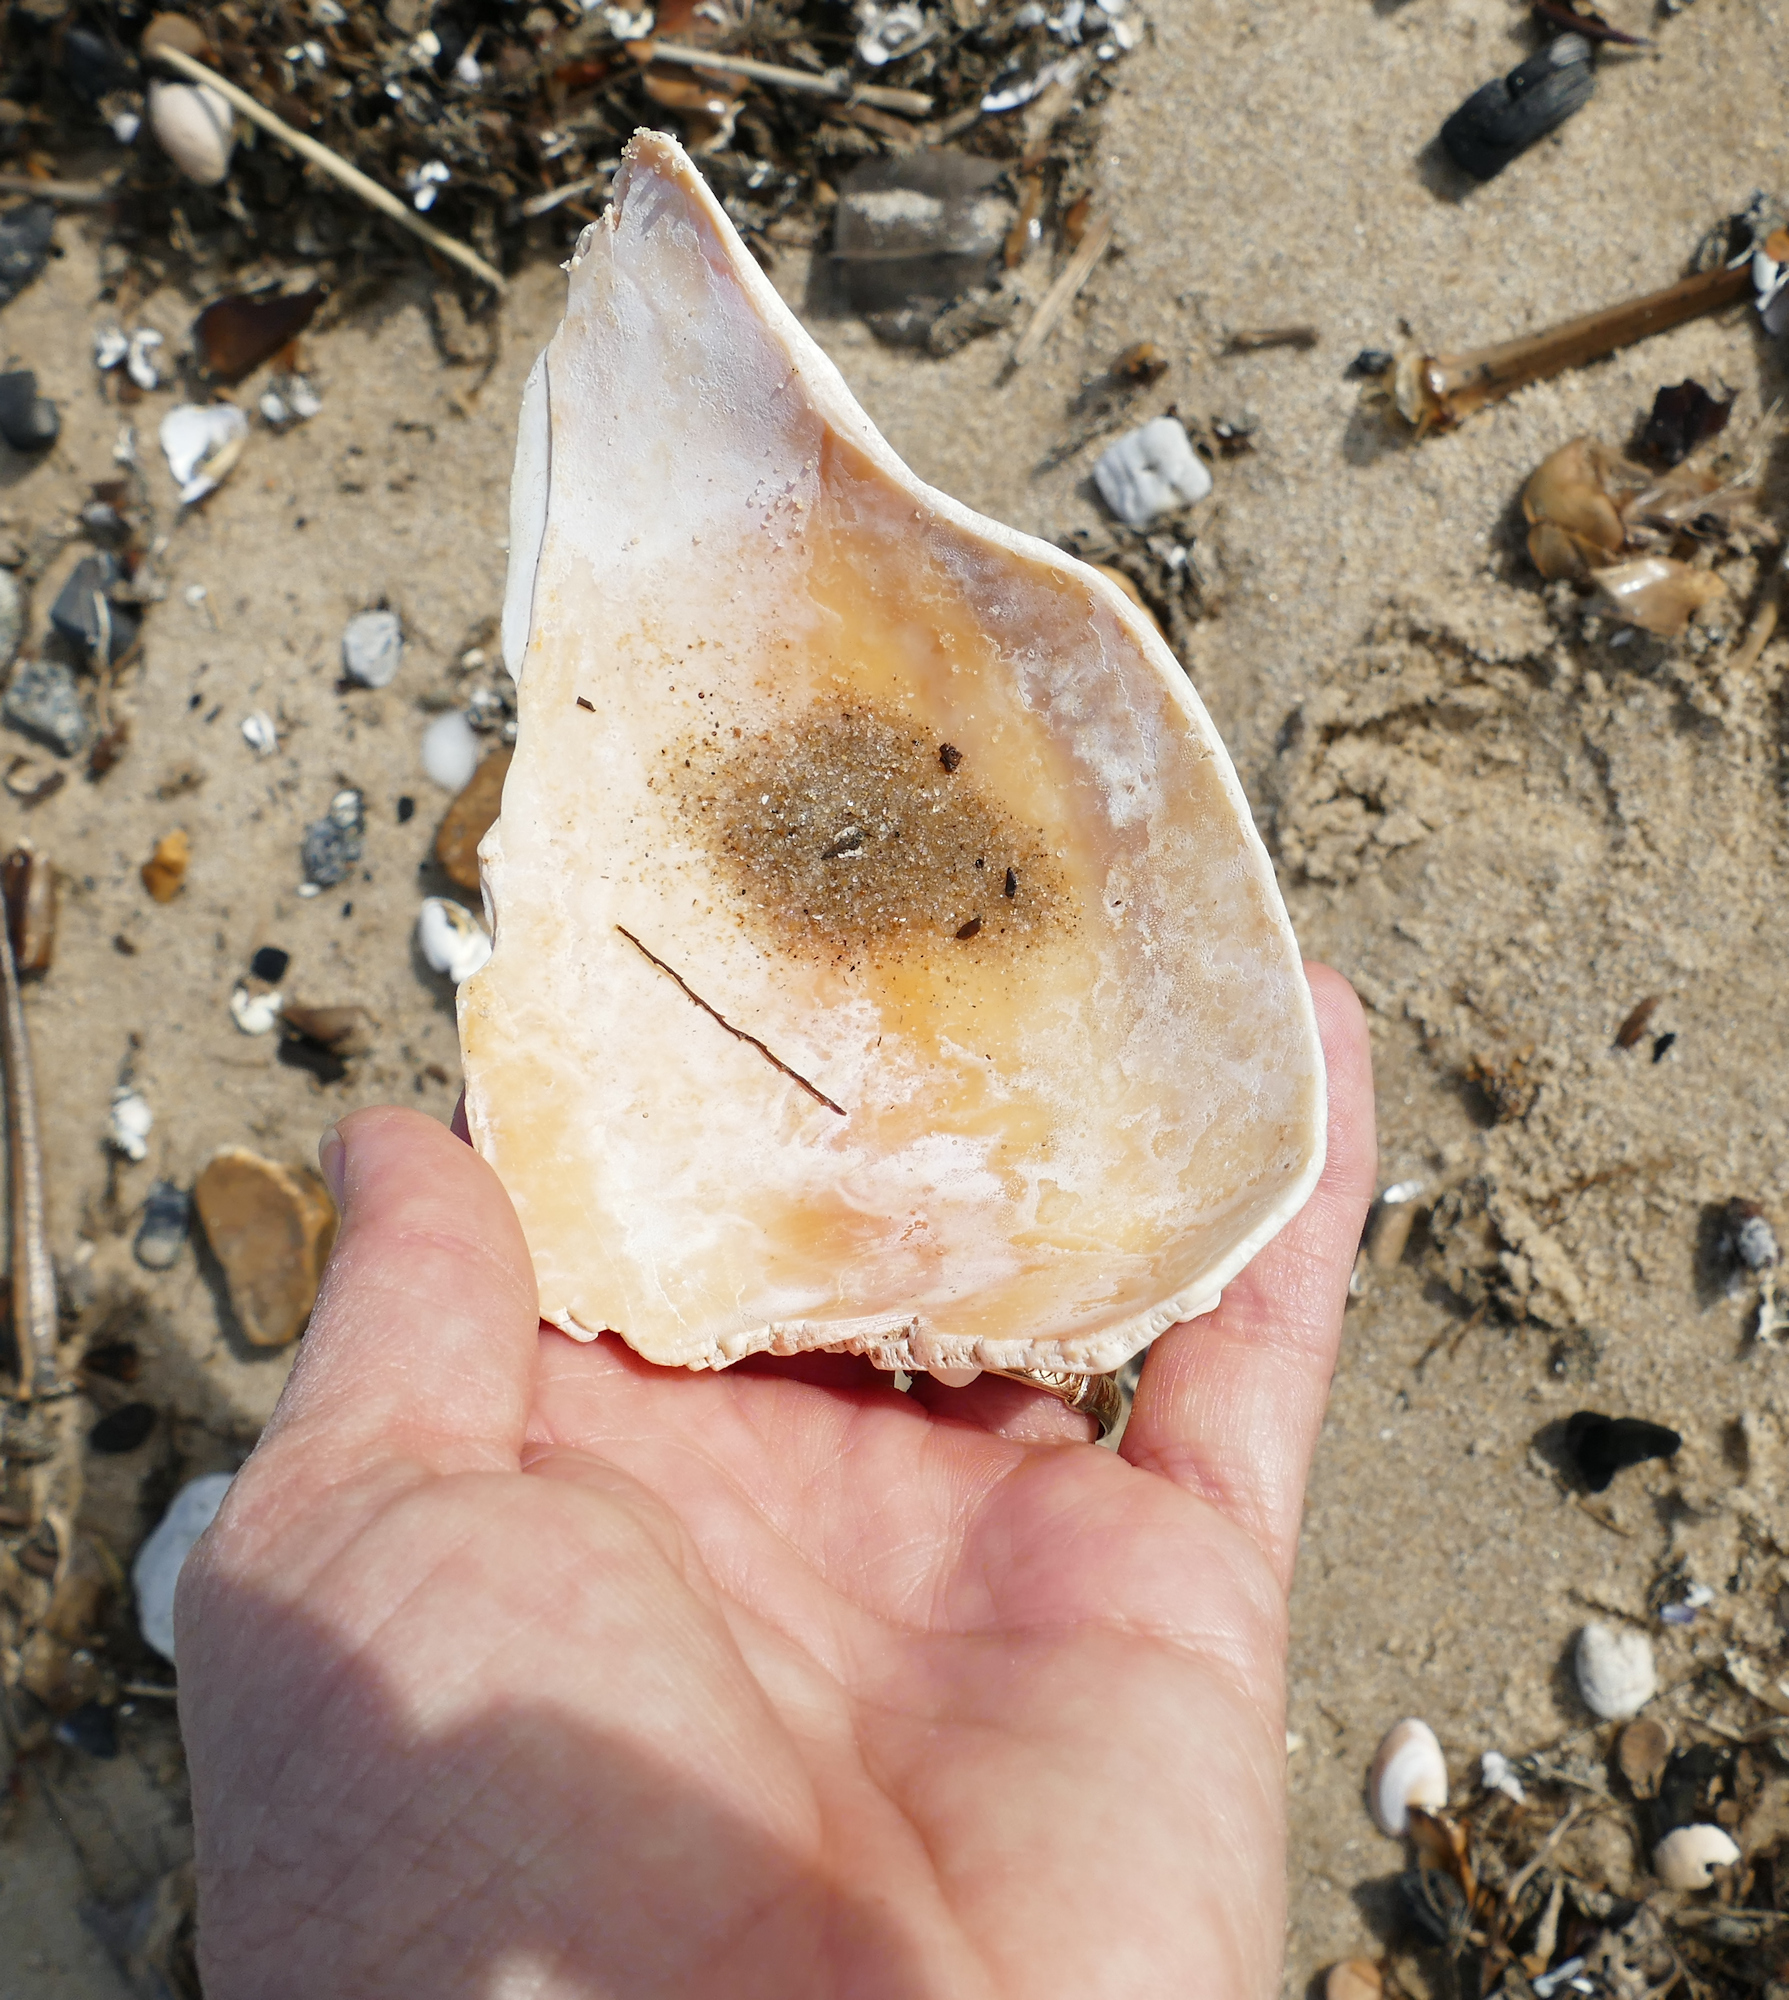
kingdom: Animalia
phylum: Mollusca
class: Gastropoda
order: Neogastropoda
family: Busyconidae
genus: Busycon
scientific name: Busycon carica
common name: Knobbed whelk
